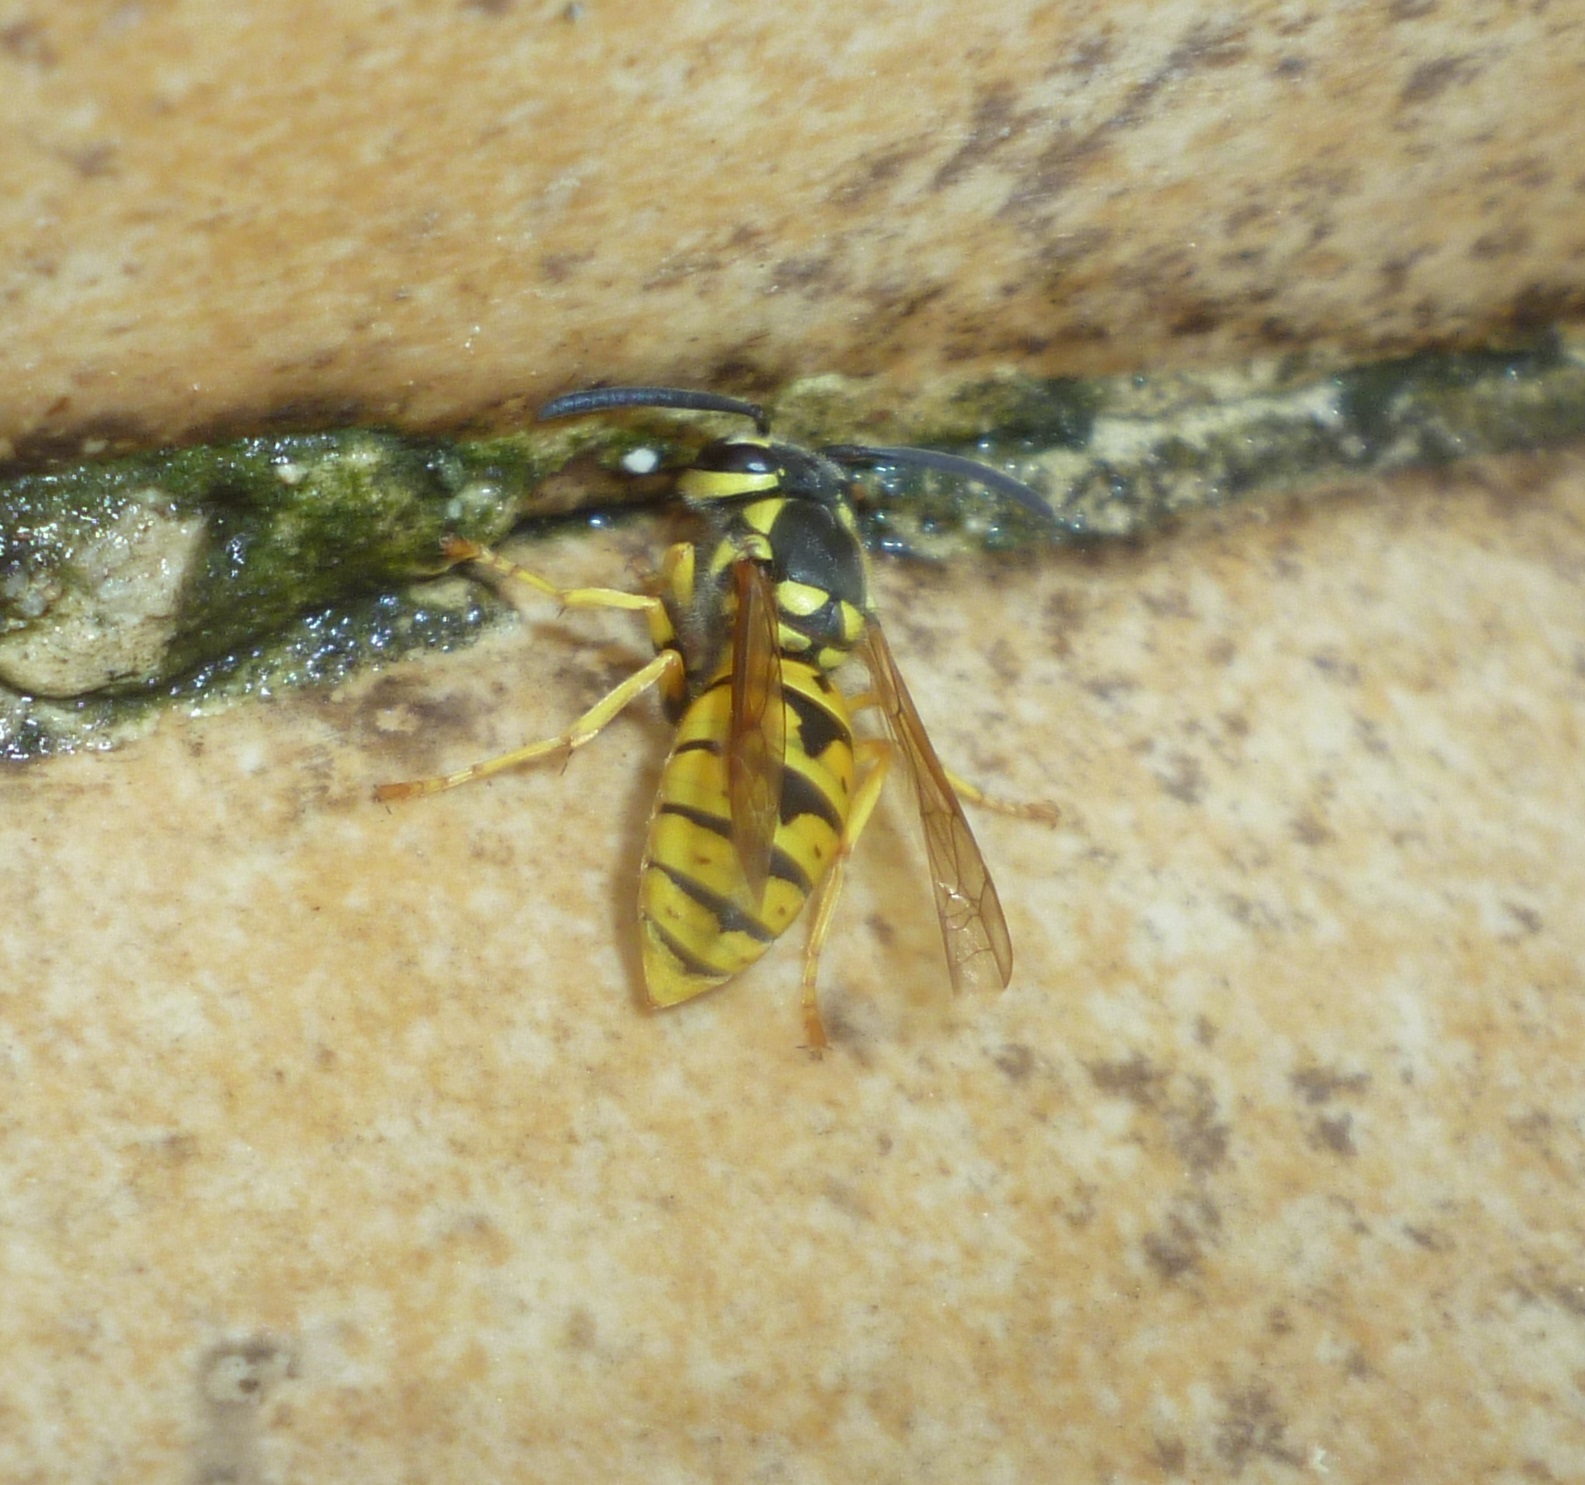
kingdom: Animalia
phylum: Arthropoda
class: Insecta
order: Hymenoptera
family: Vespidae
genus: Vespula
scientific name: Vespula germanica
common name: German wasp
